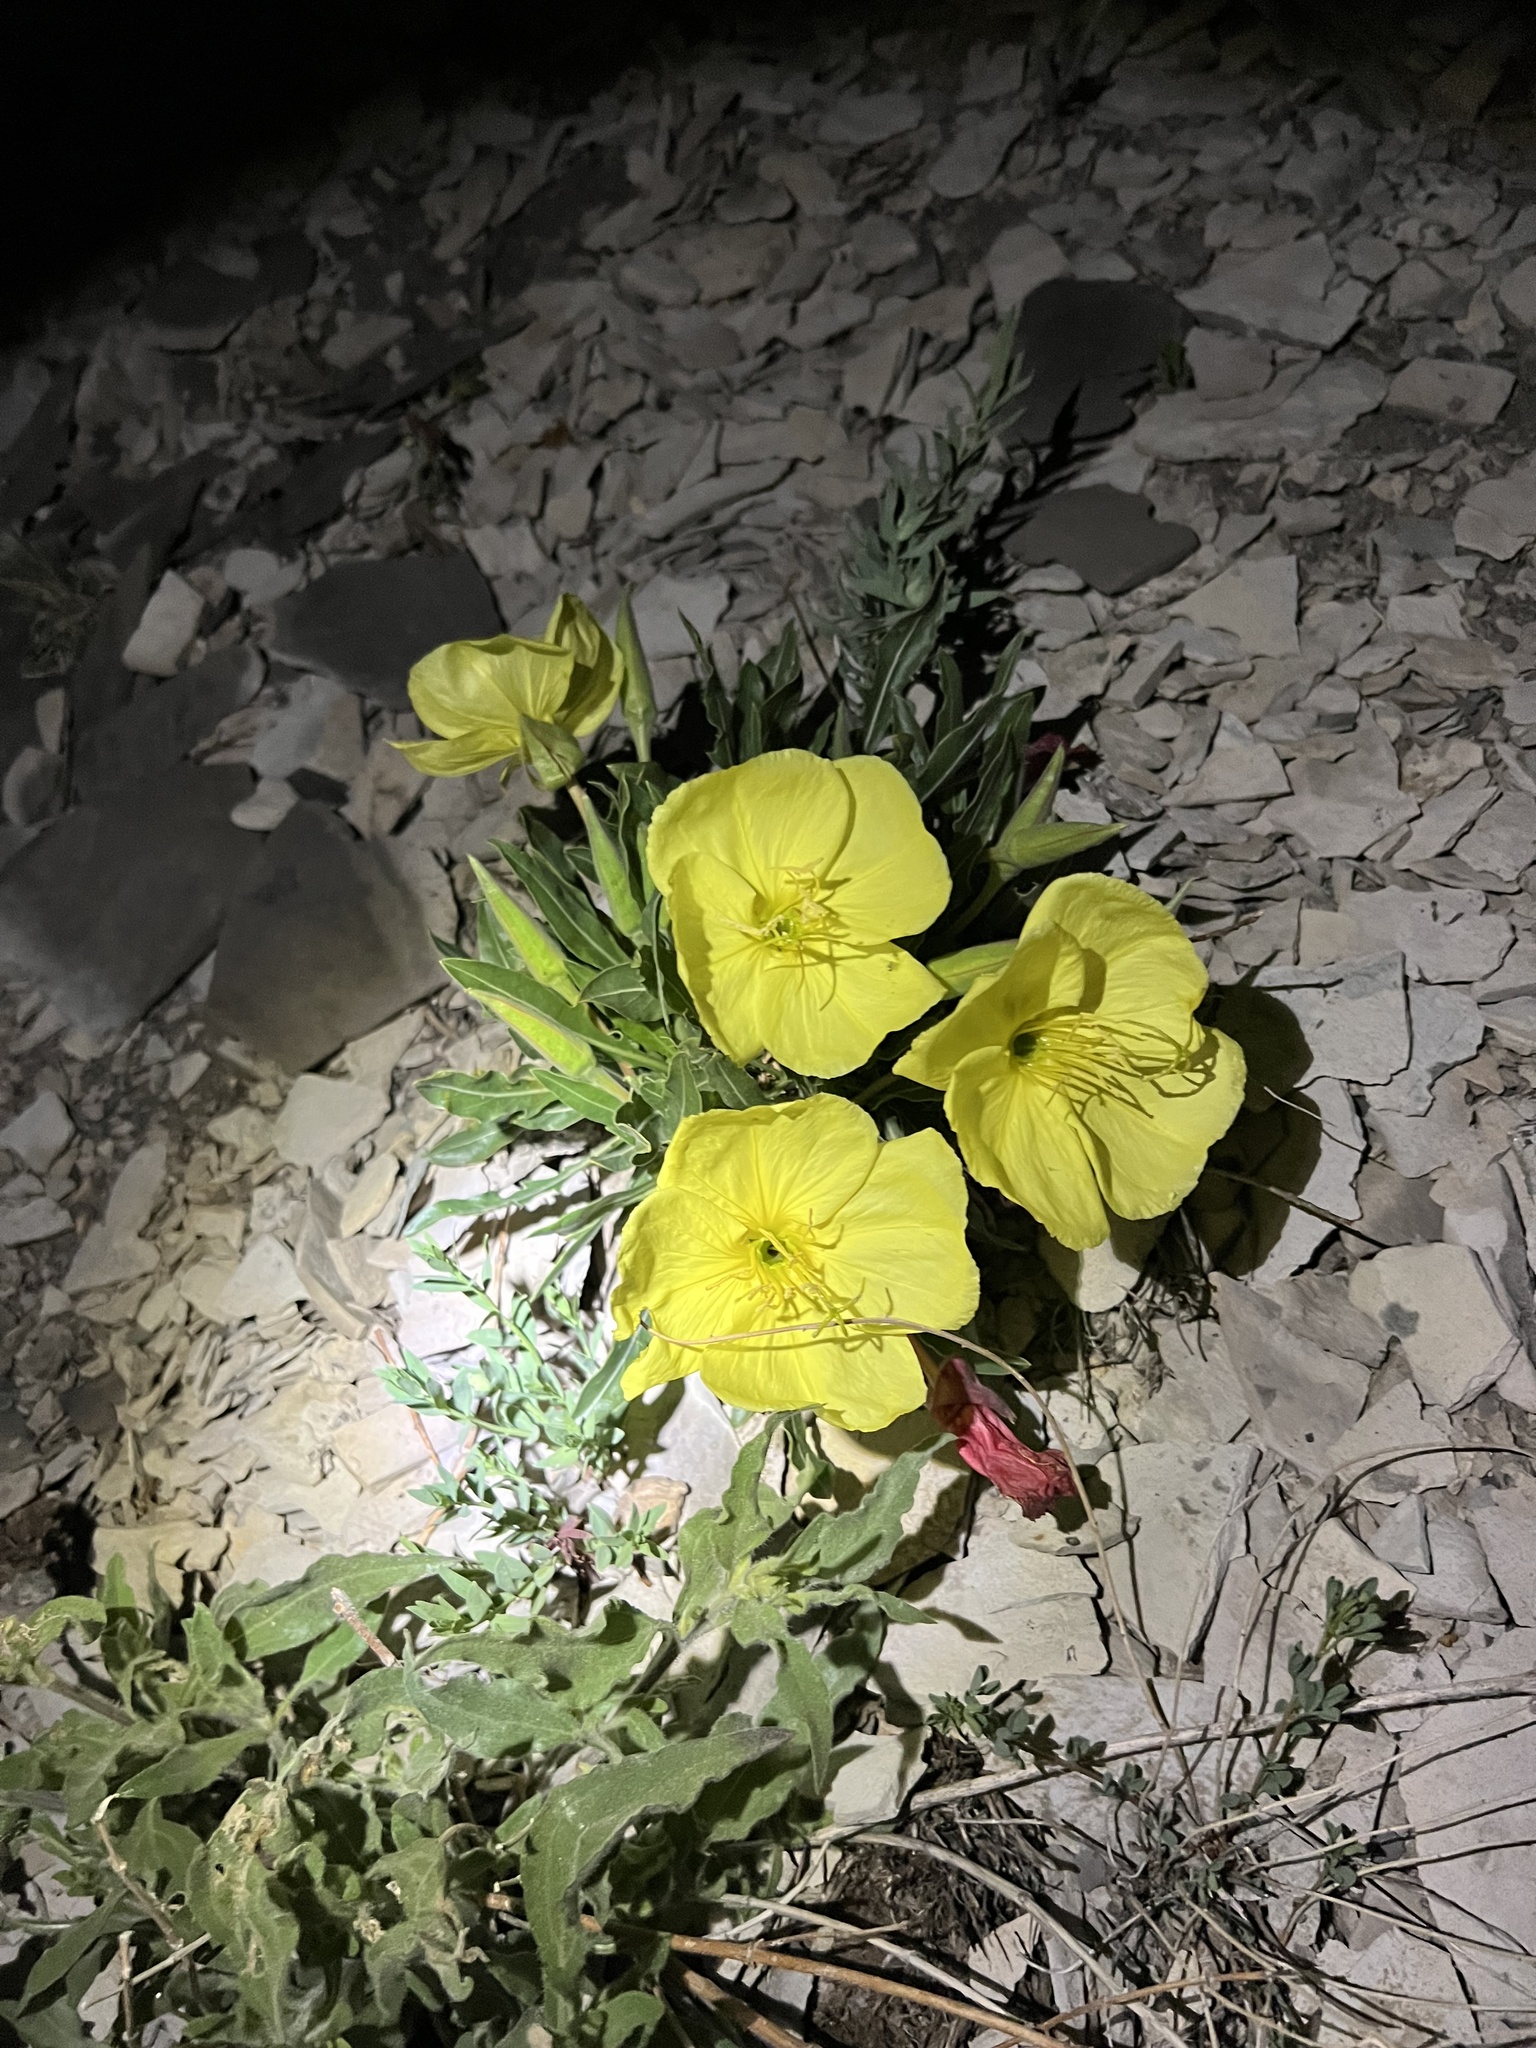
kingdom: Plantae
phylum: Tracheophyta
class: Magnoliopsida
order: Myrtales
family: Onagraceae
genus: Oenothera
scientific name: Oenothera howardii
